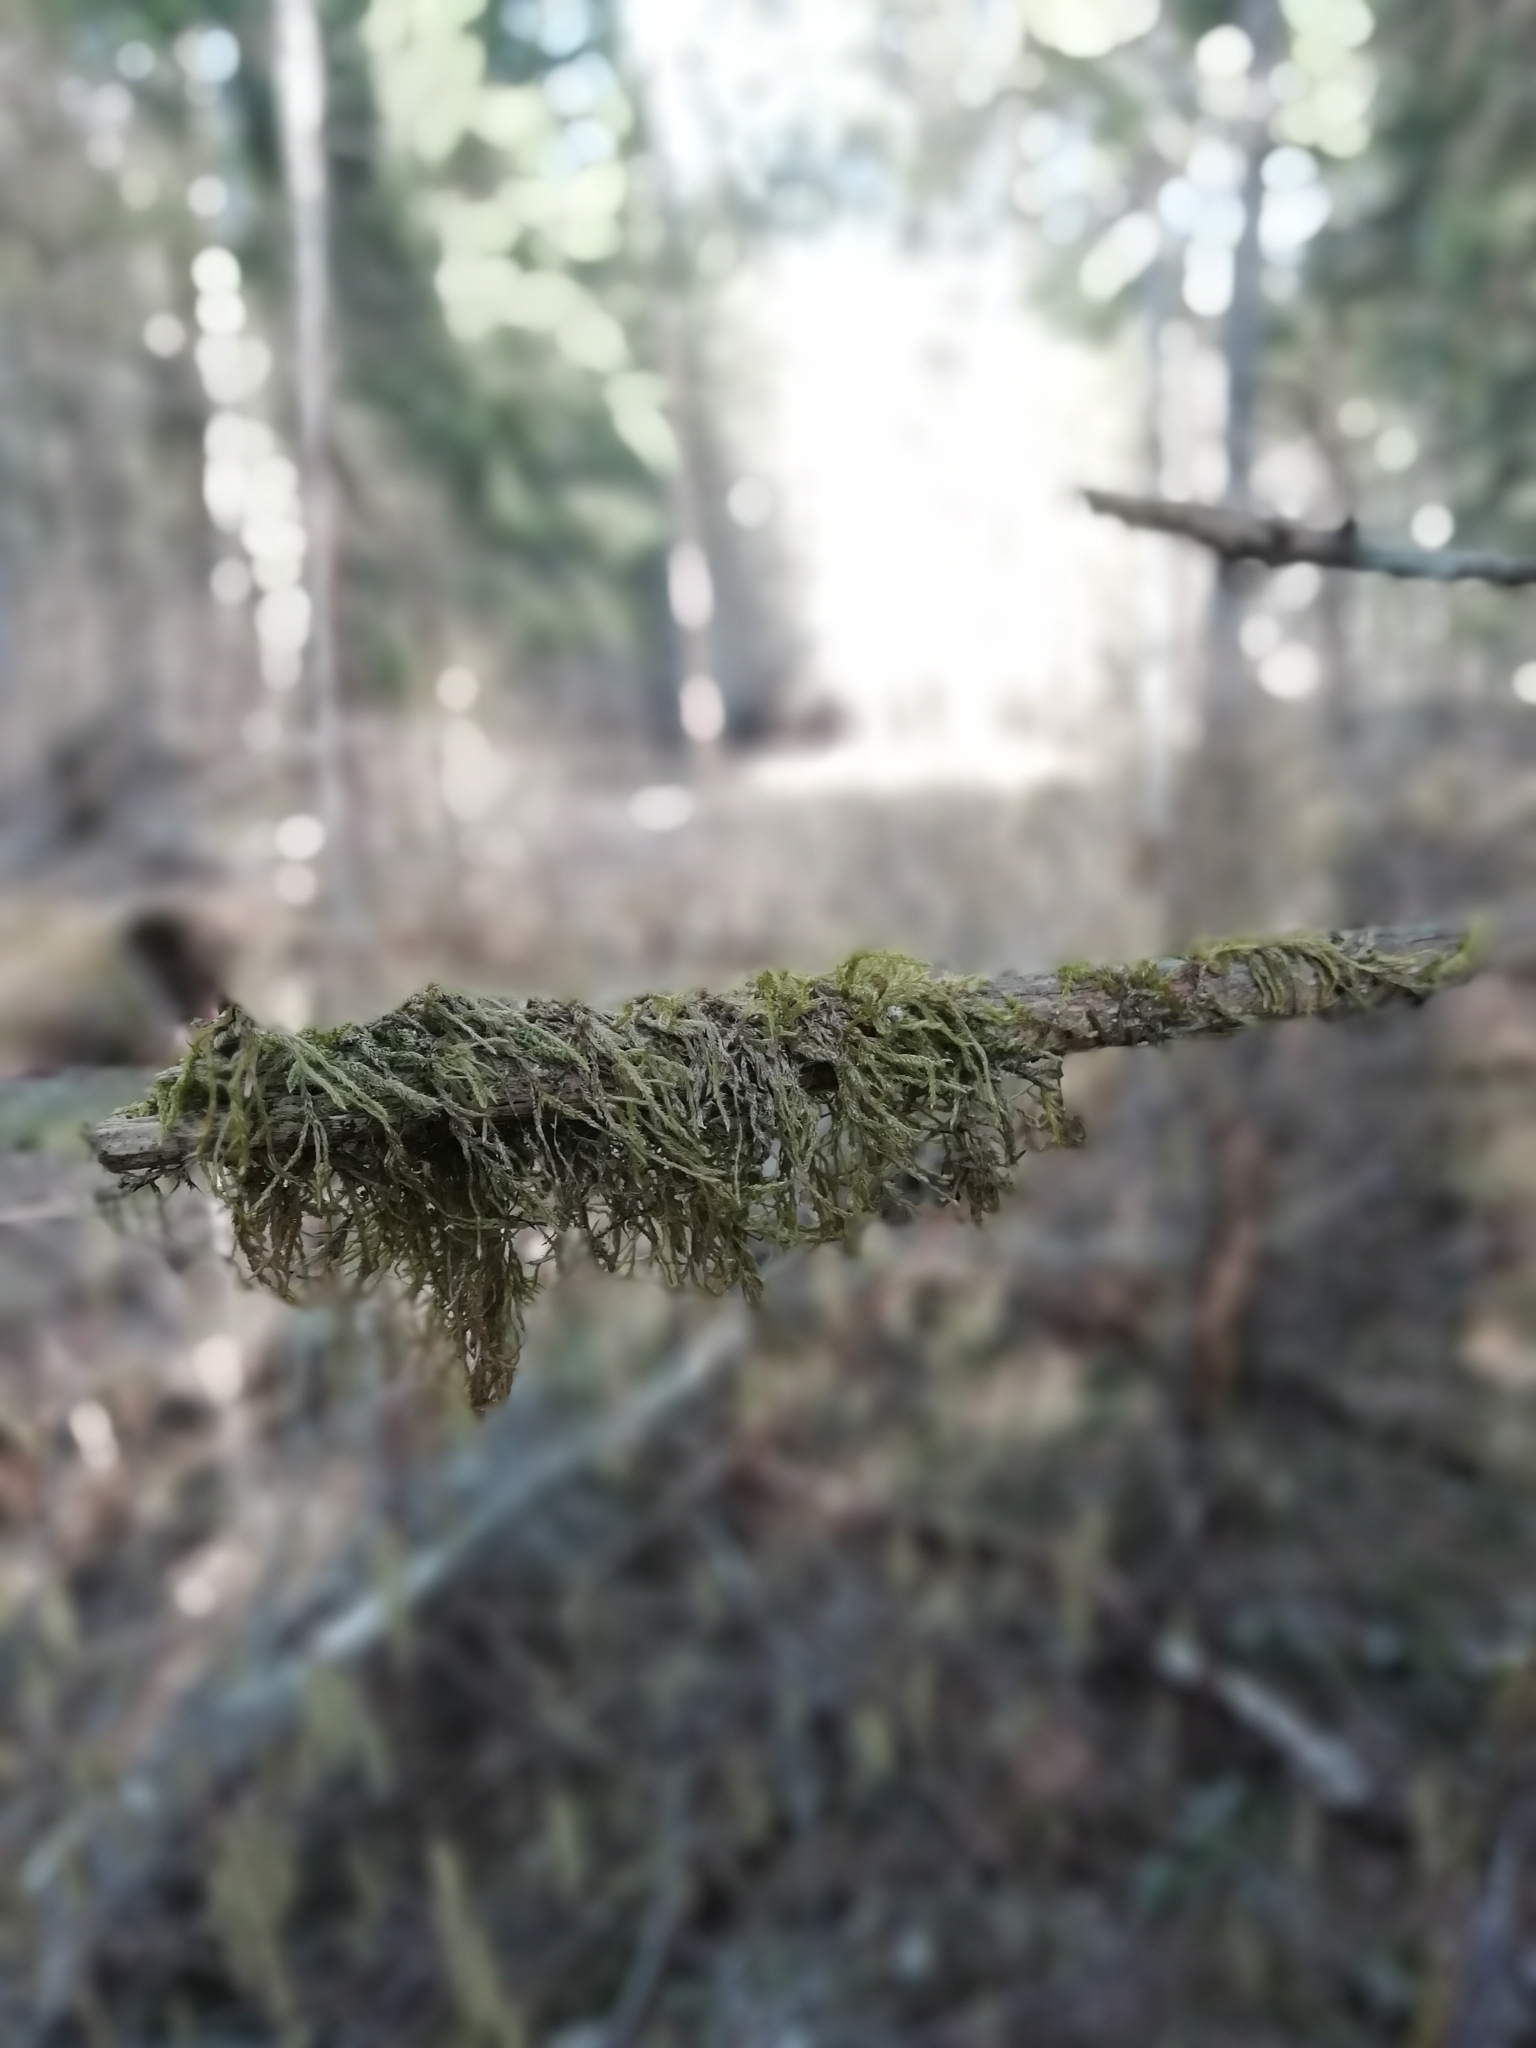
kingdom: Plantae
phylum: Bryophyta
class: Bryopsida
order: Hypnales
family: Hypnaceae
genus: Hypnum
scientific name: Hypnum cupressiforme
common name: Cypress-leaved plait-moss
